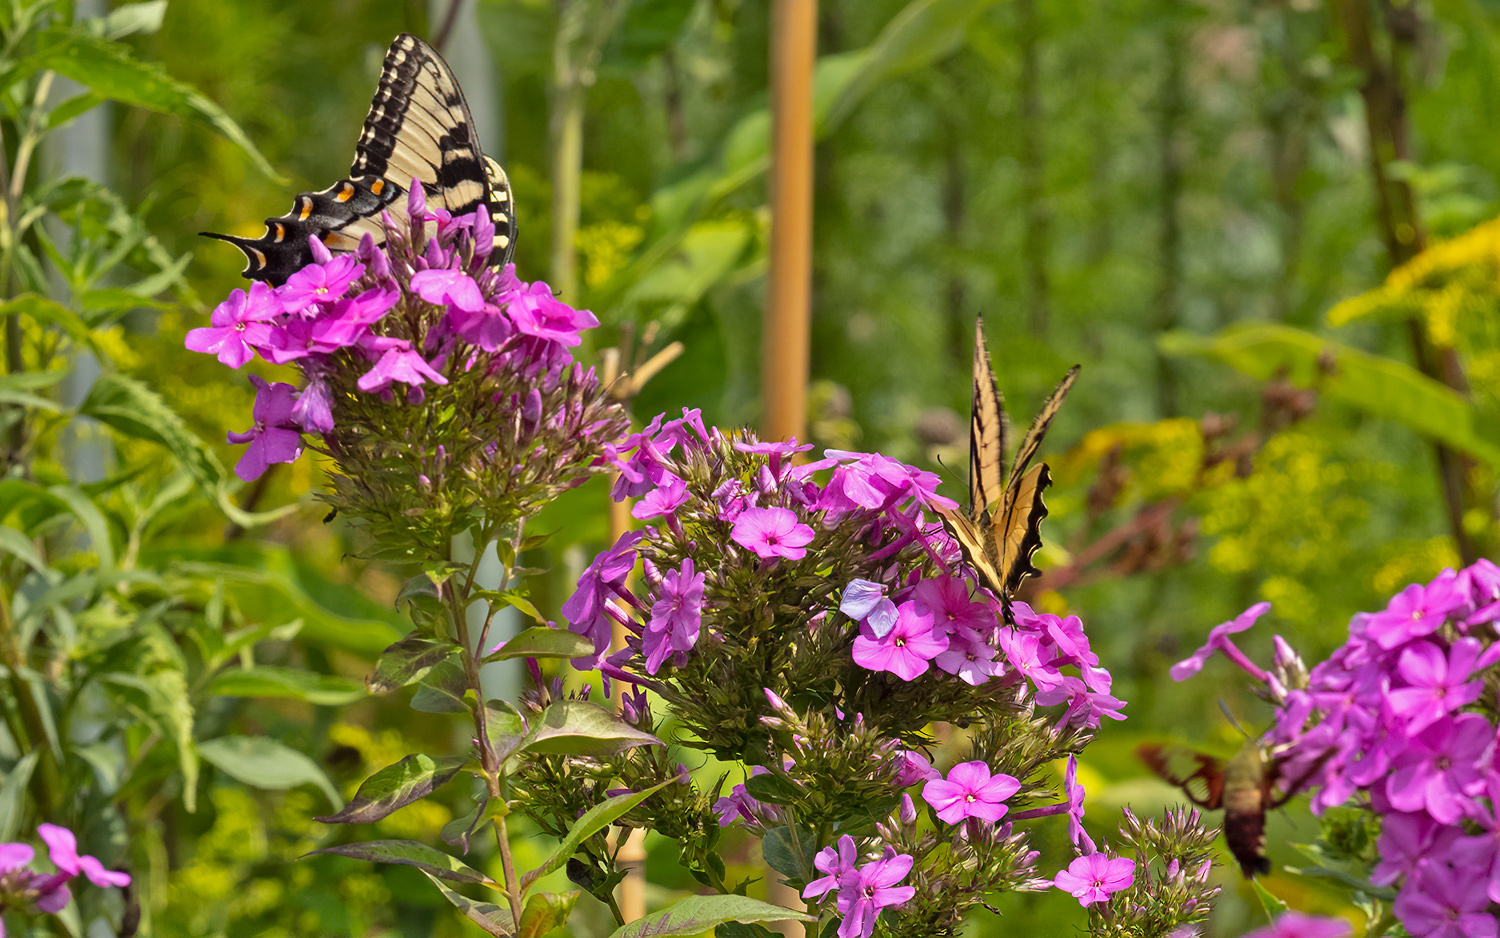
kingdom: Animalia
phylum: Arthropoda
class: Insecta
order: Lepidoptera
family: Sphingidae
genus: Hemaris
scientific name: Hemaris thysbe
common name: Common clear-wing
